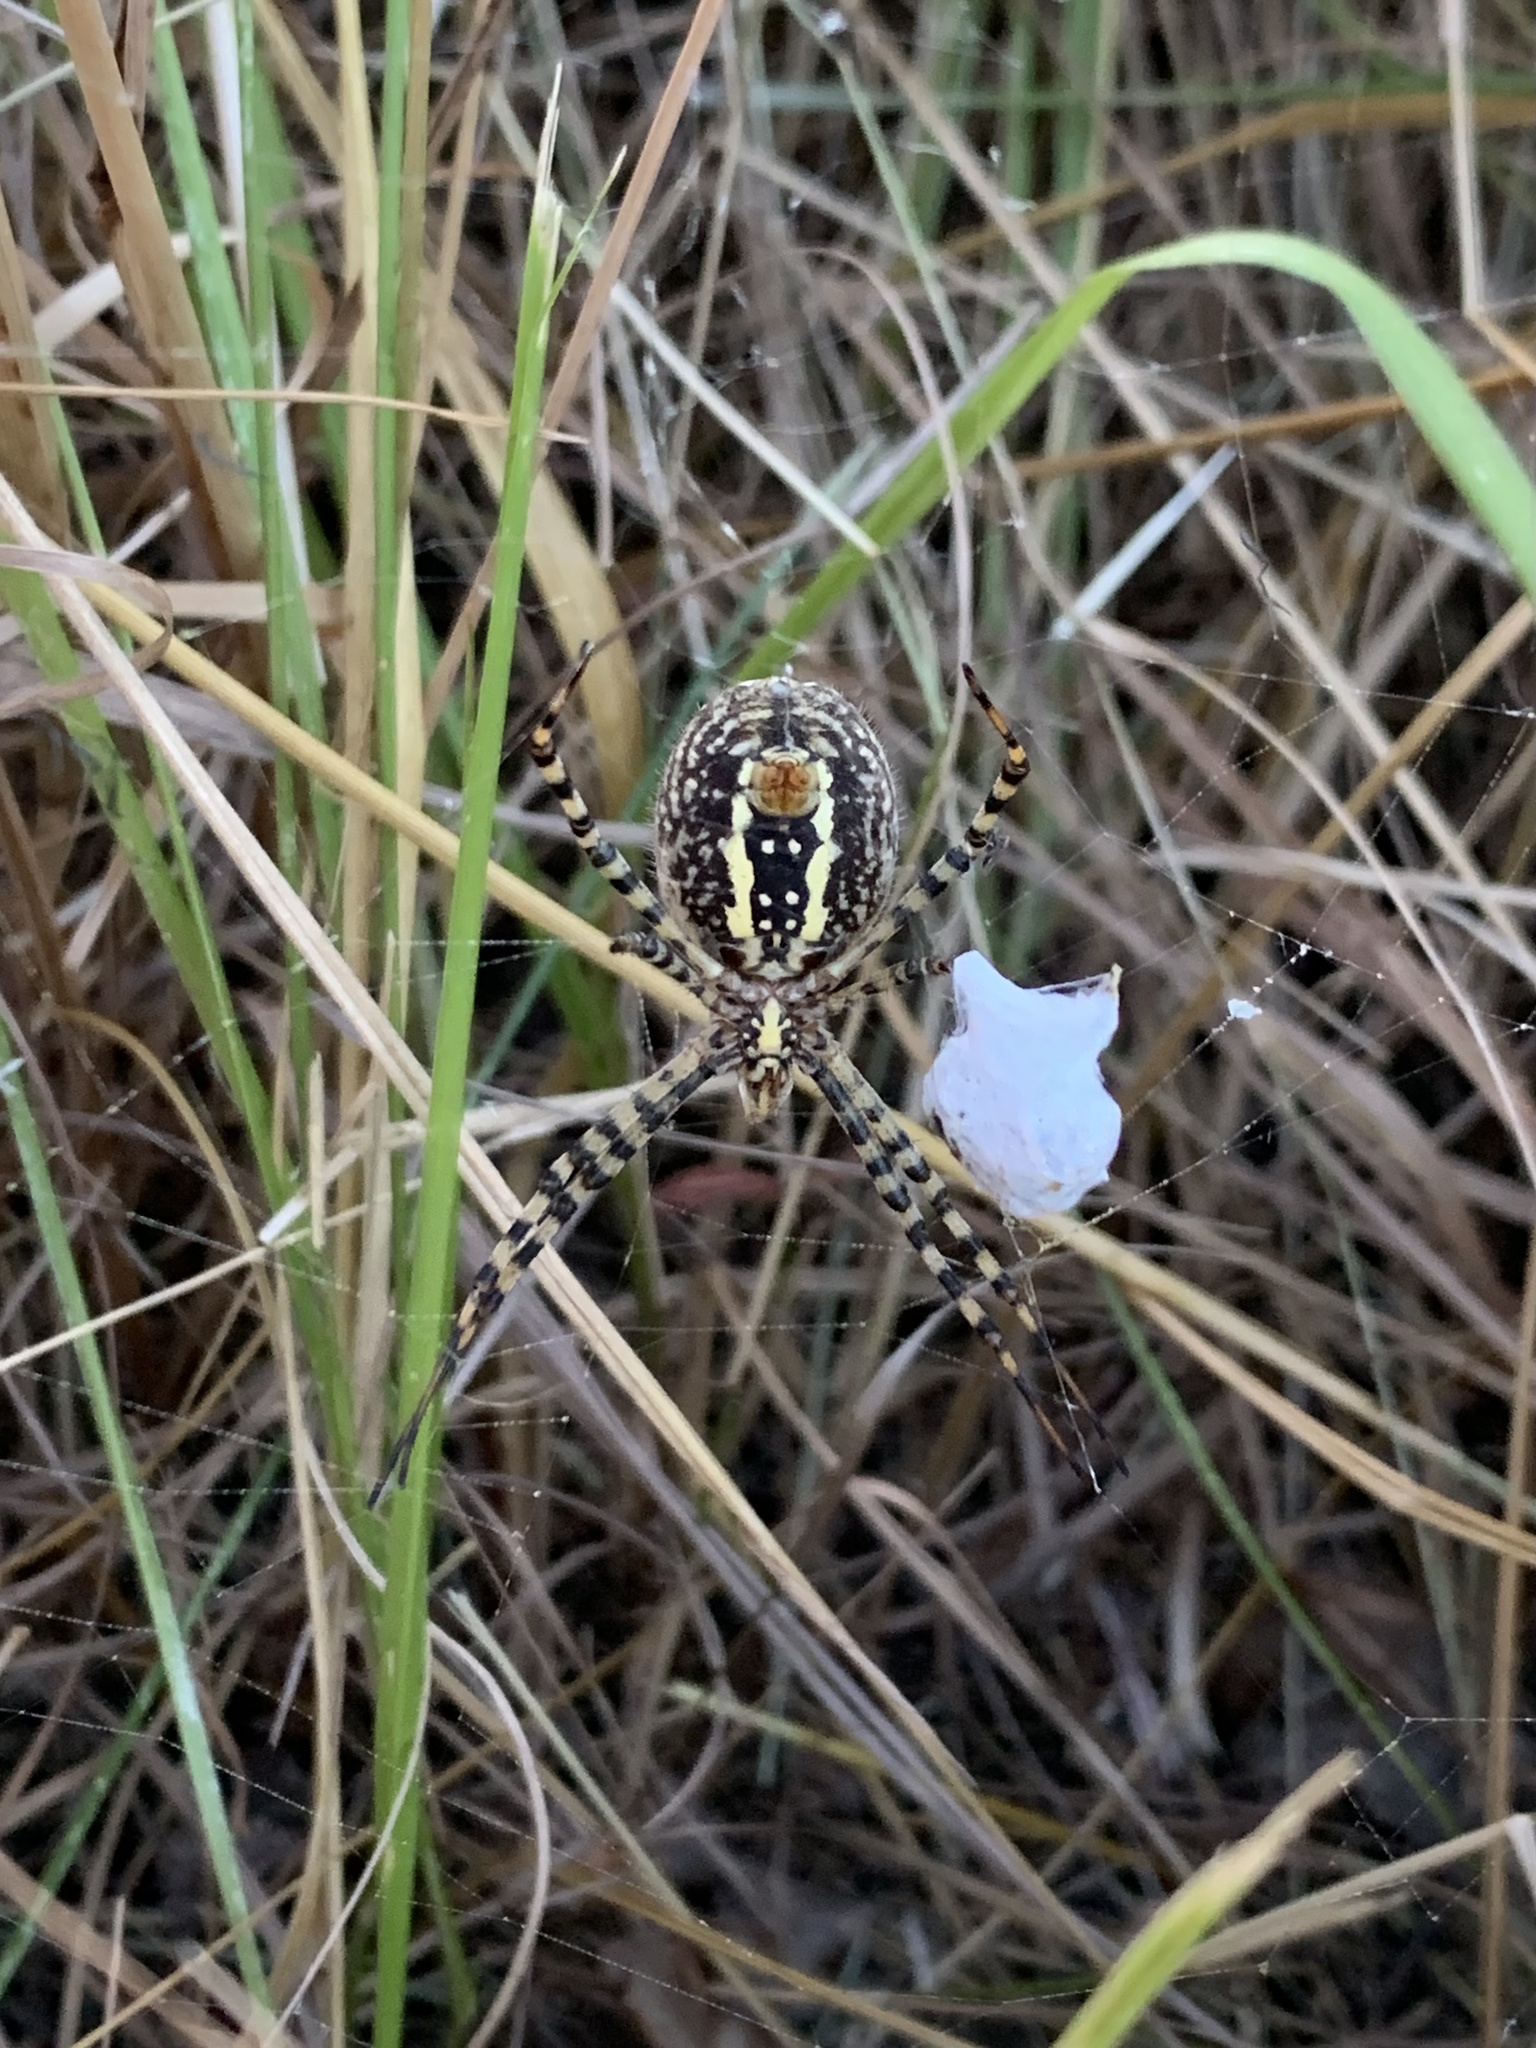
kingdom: Animalia
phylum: Arthropoda
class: Arachnida
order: Araneae
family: Araneidae
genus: Argiope
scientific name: Argiope trifasciata
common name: Banded garden spider
